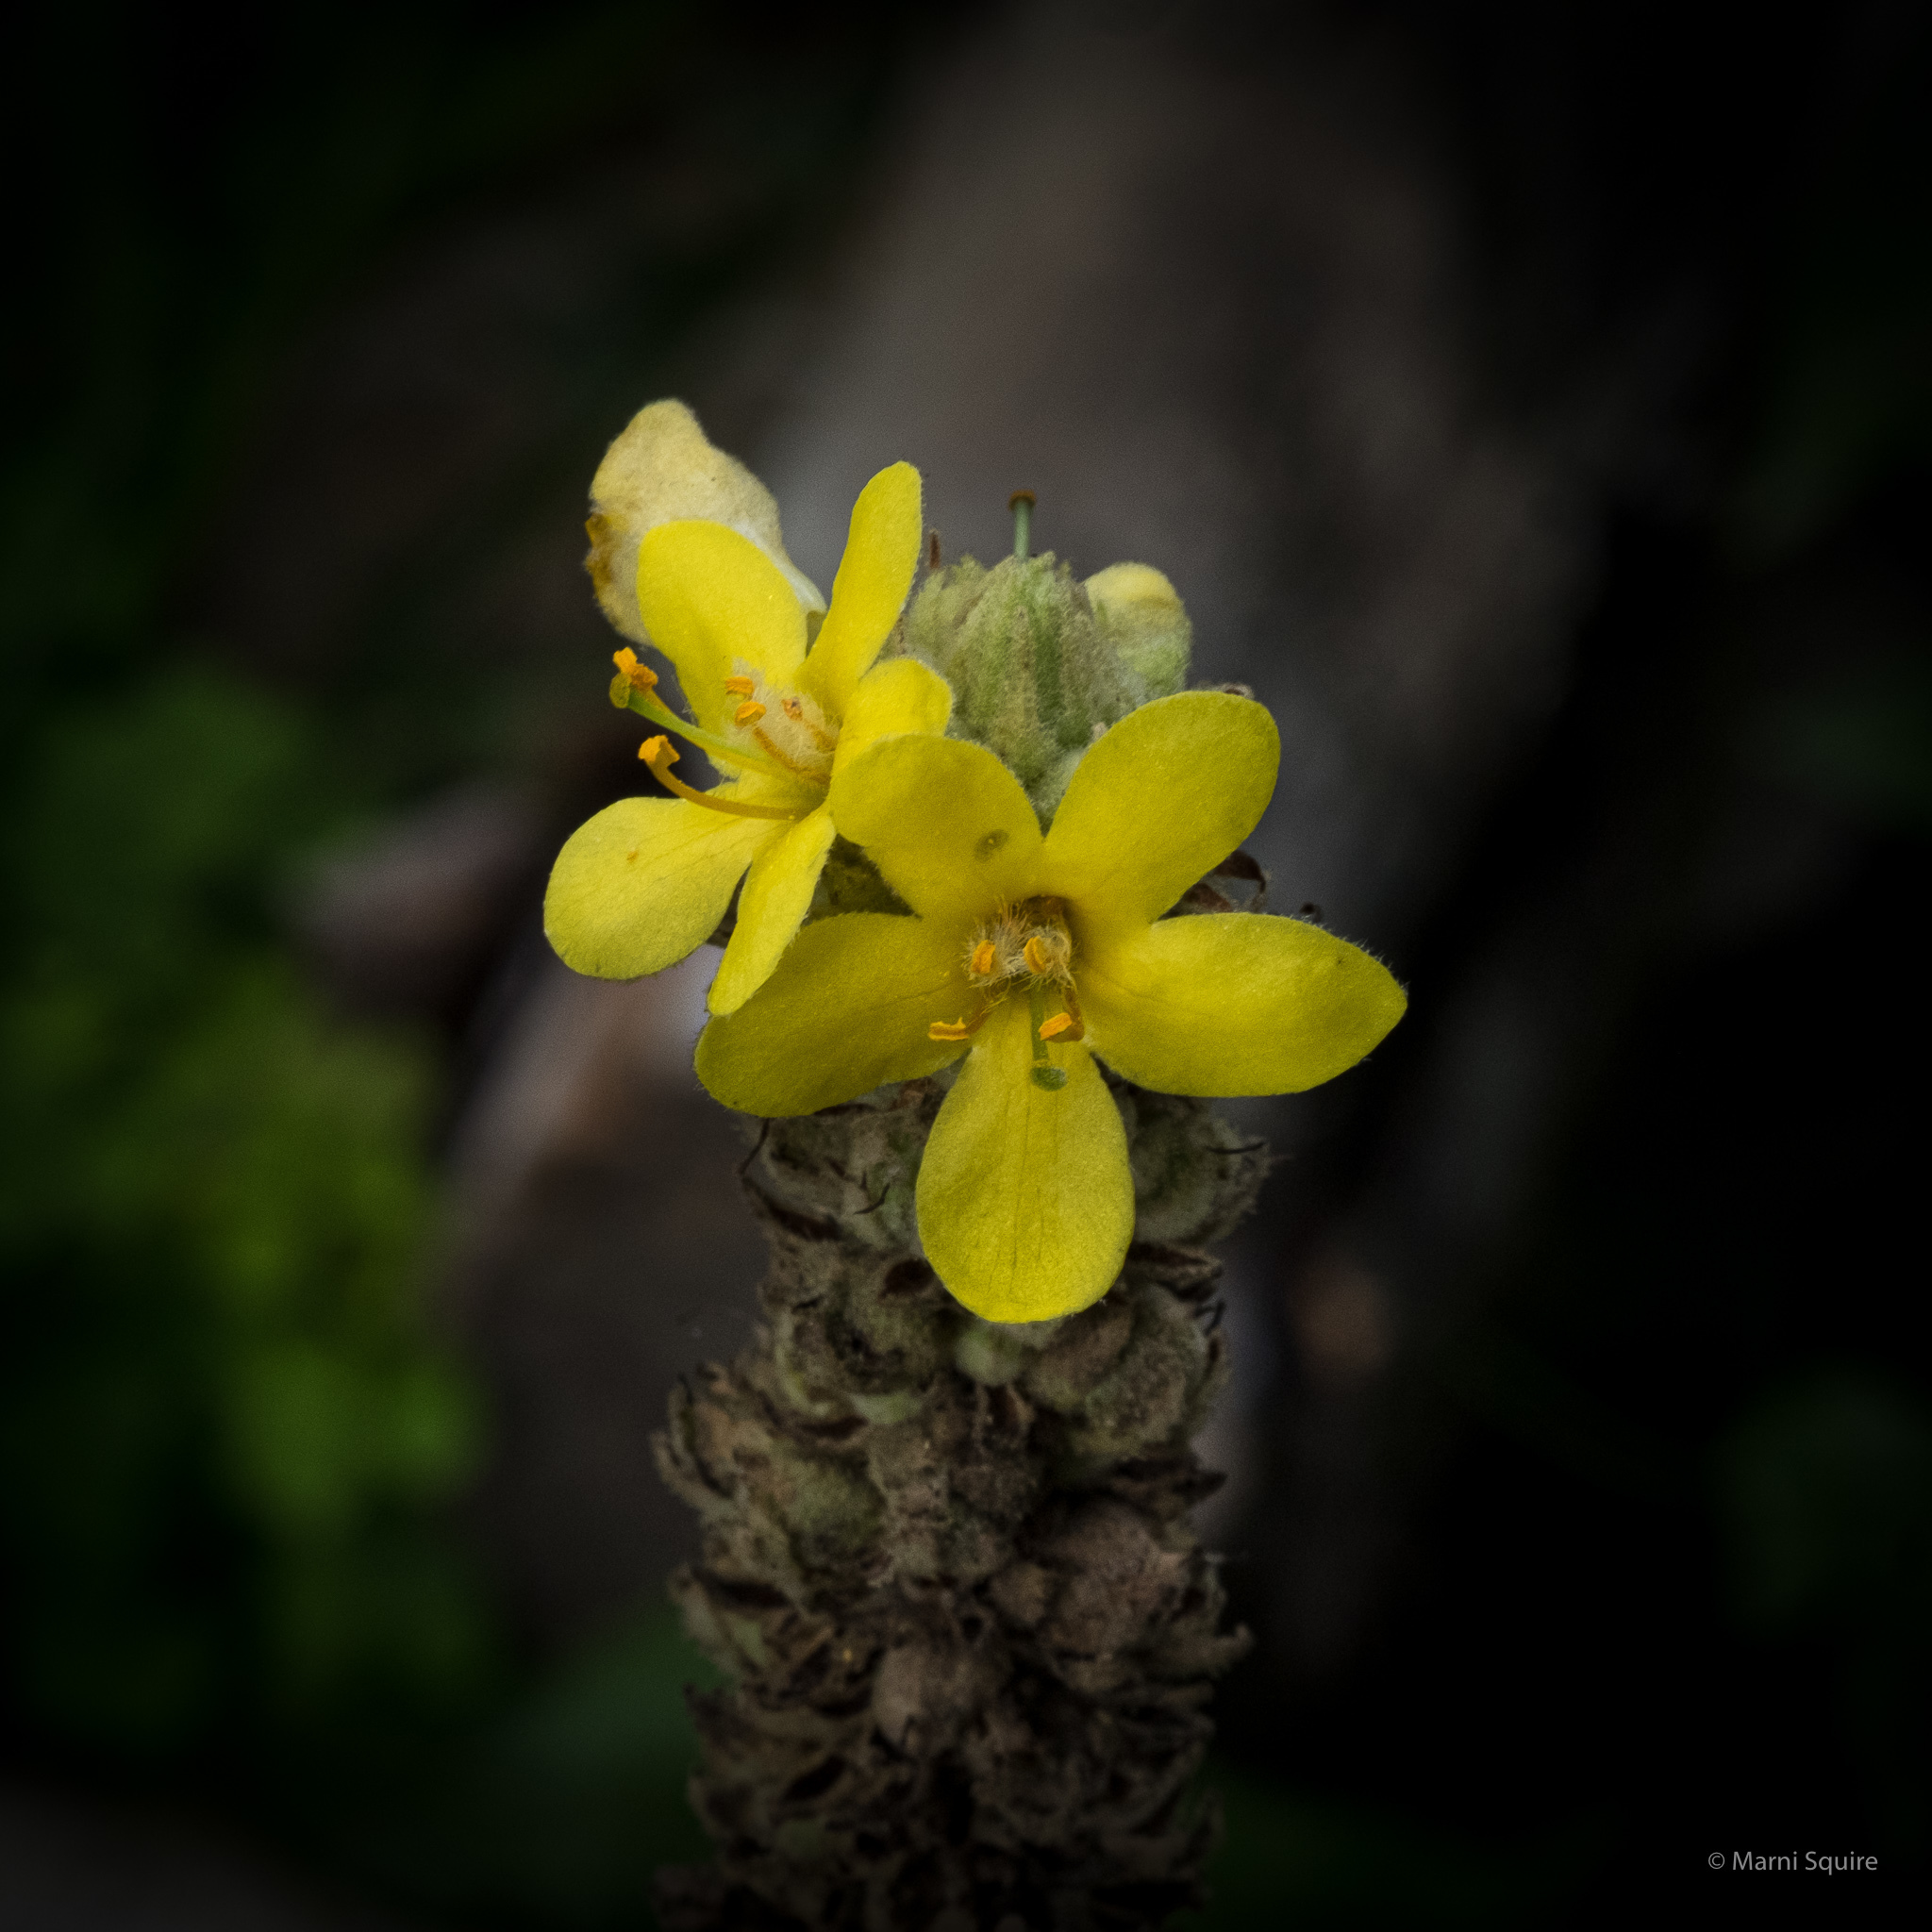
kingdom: Plantae
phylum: Tracheophyta
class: Magnoliopsida
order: Lamiales
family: Scrophulariaceae
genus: Verbascum
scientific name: Verbascum thapsus
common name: Common mullein
